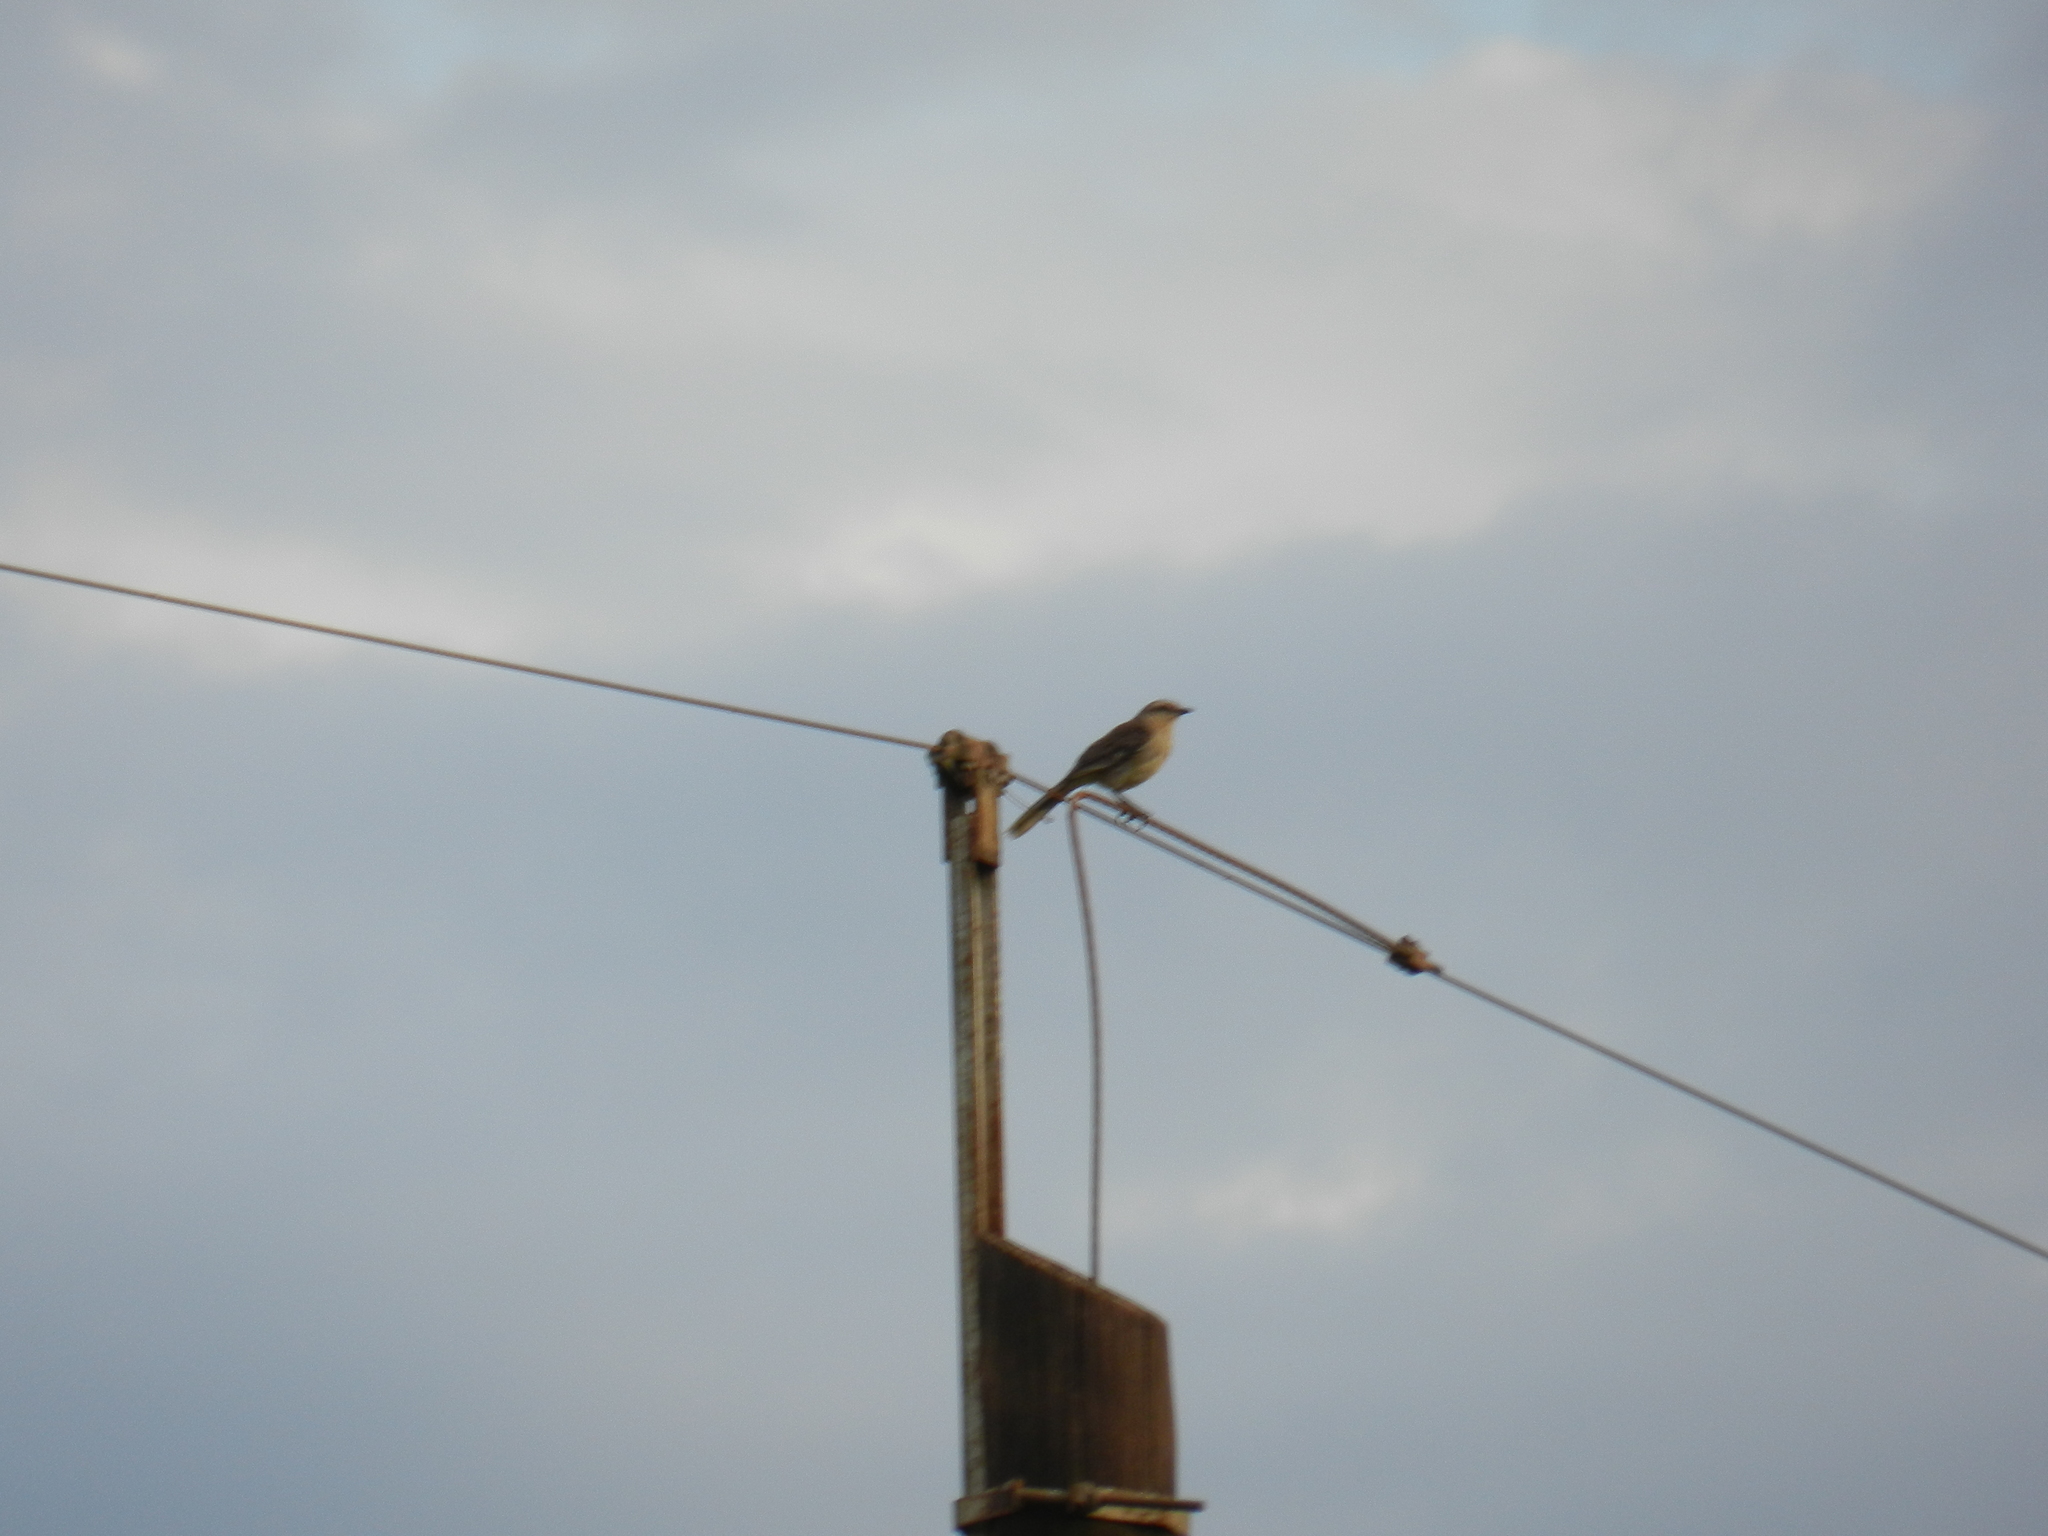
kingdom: Animalia
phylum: Chordata
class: Aves
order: Passeriformes
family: Mimidae
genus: Mimus
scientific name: Mimus saturninus
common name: Chalk-browed mockingbird
